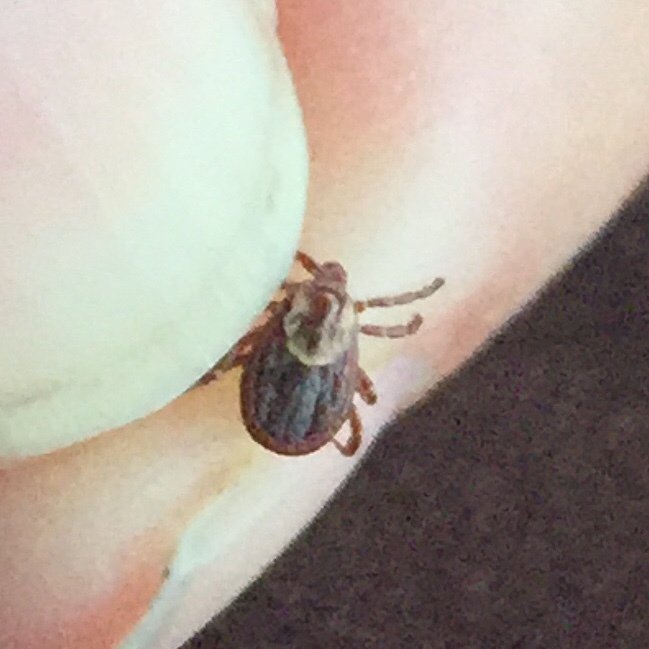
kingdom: Animalia
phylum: Arthropoda
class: Arachnida
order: Ixodida
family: Ixodidae
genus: Dermacentor
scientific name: Dermacentor variabilis
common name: American dog tick
